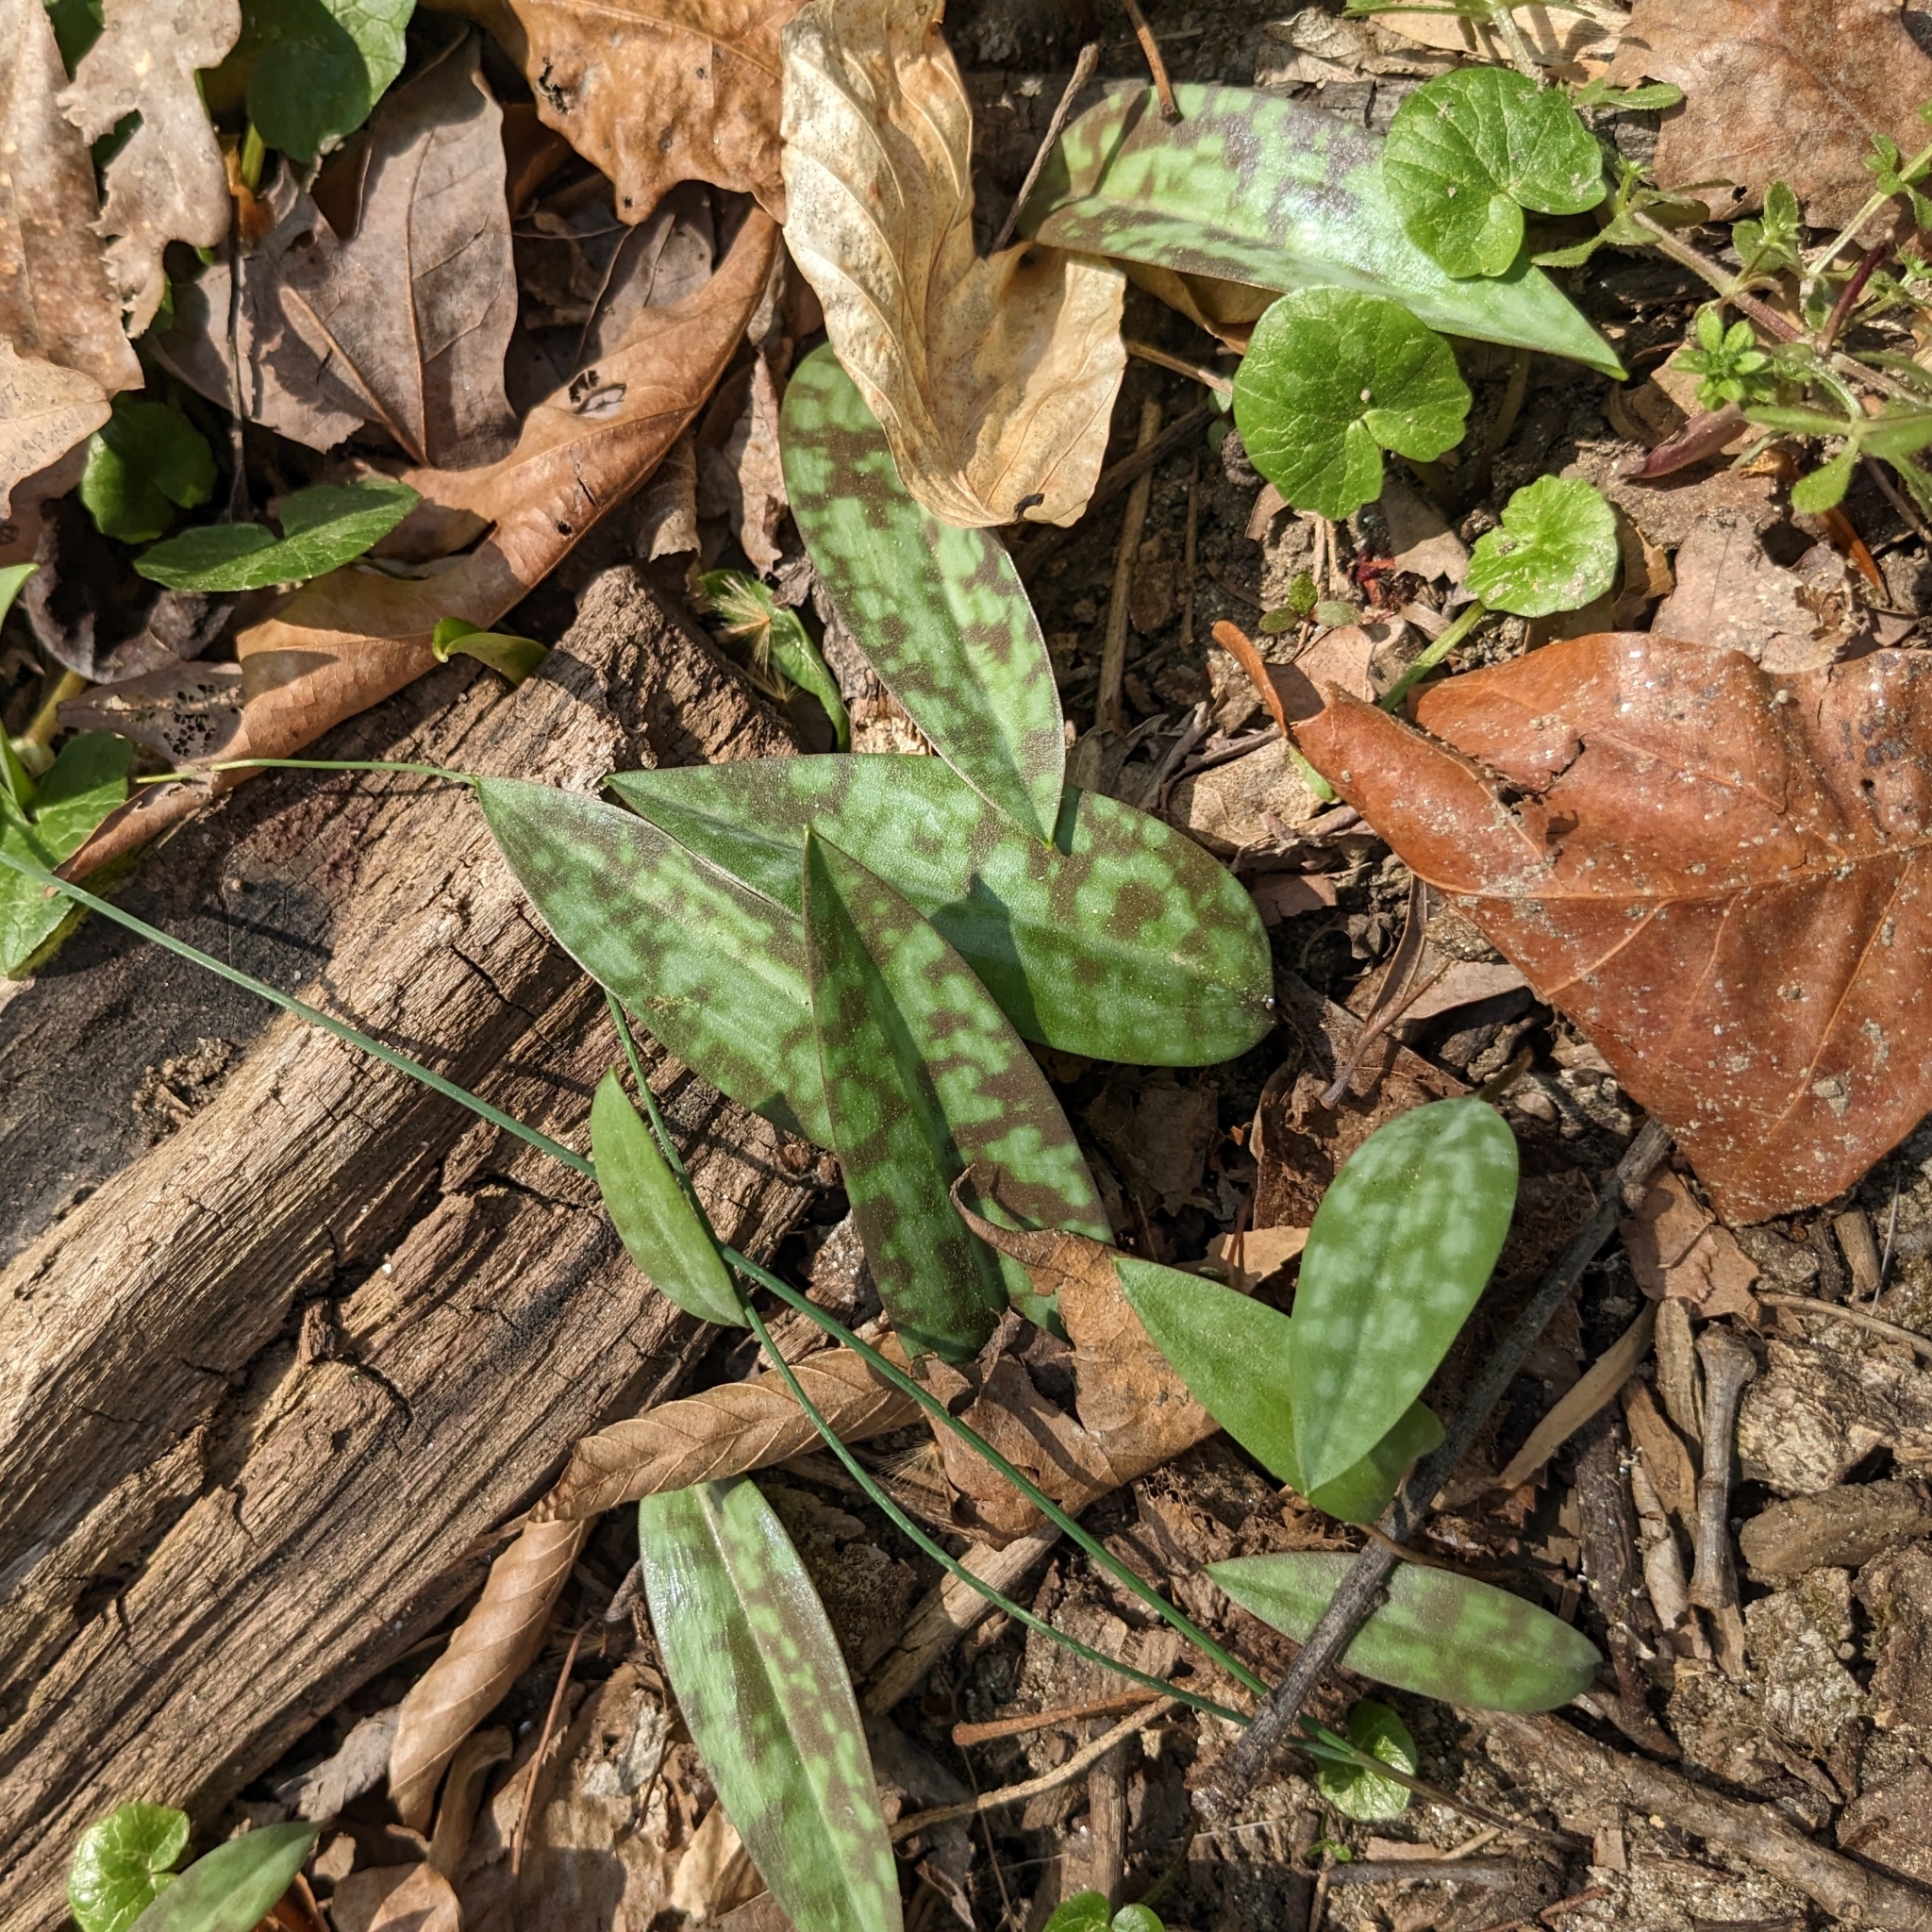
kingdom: Plantae
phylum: Tracheophyta
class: Liliopsida
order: Liliales
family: Liliaceae
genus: Erythronium
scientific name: Erythronium americanum
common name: Yellow adder's-tongue
